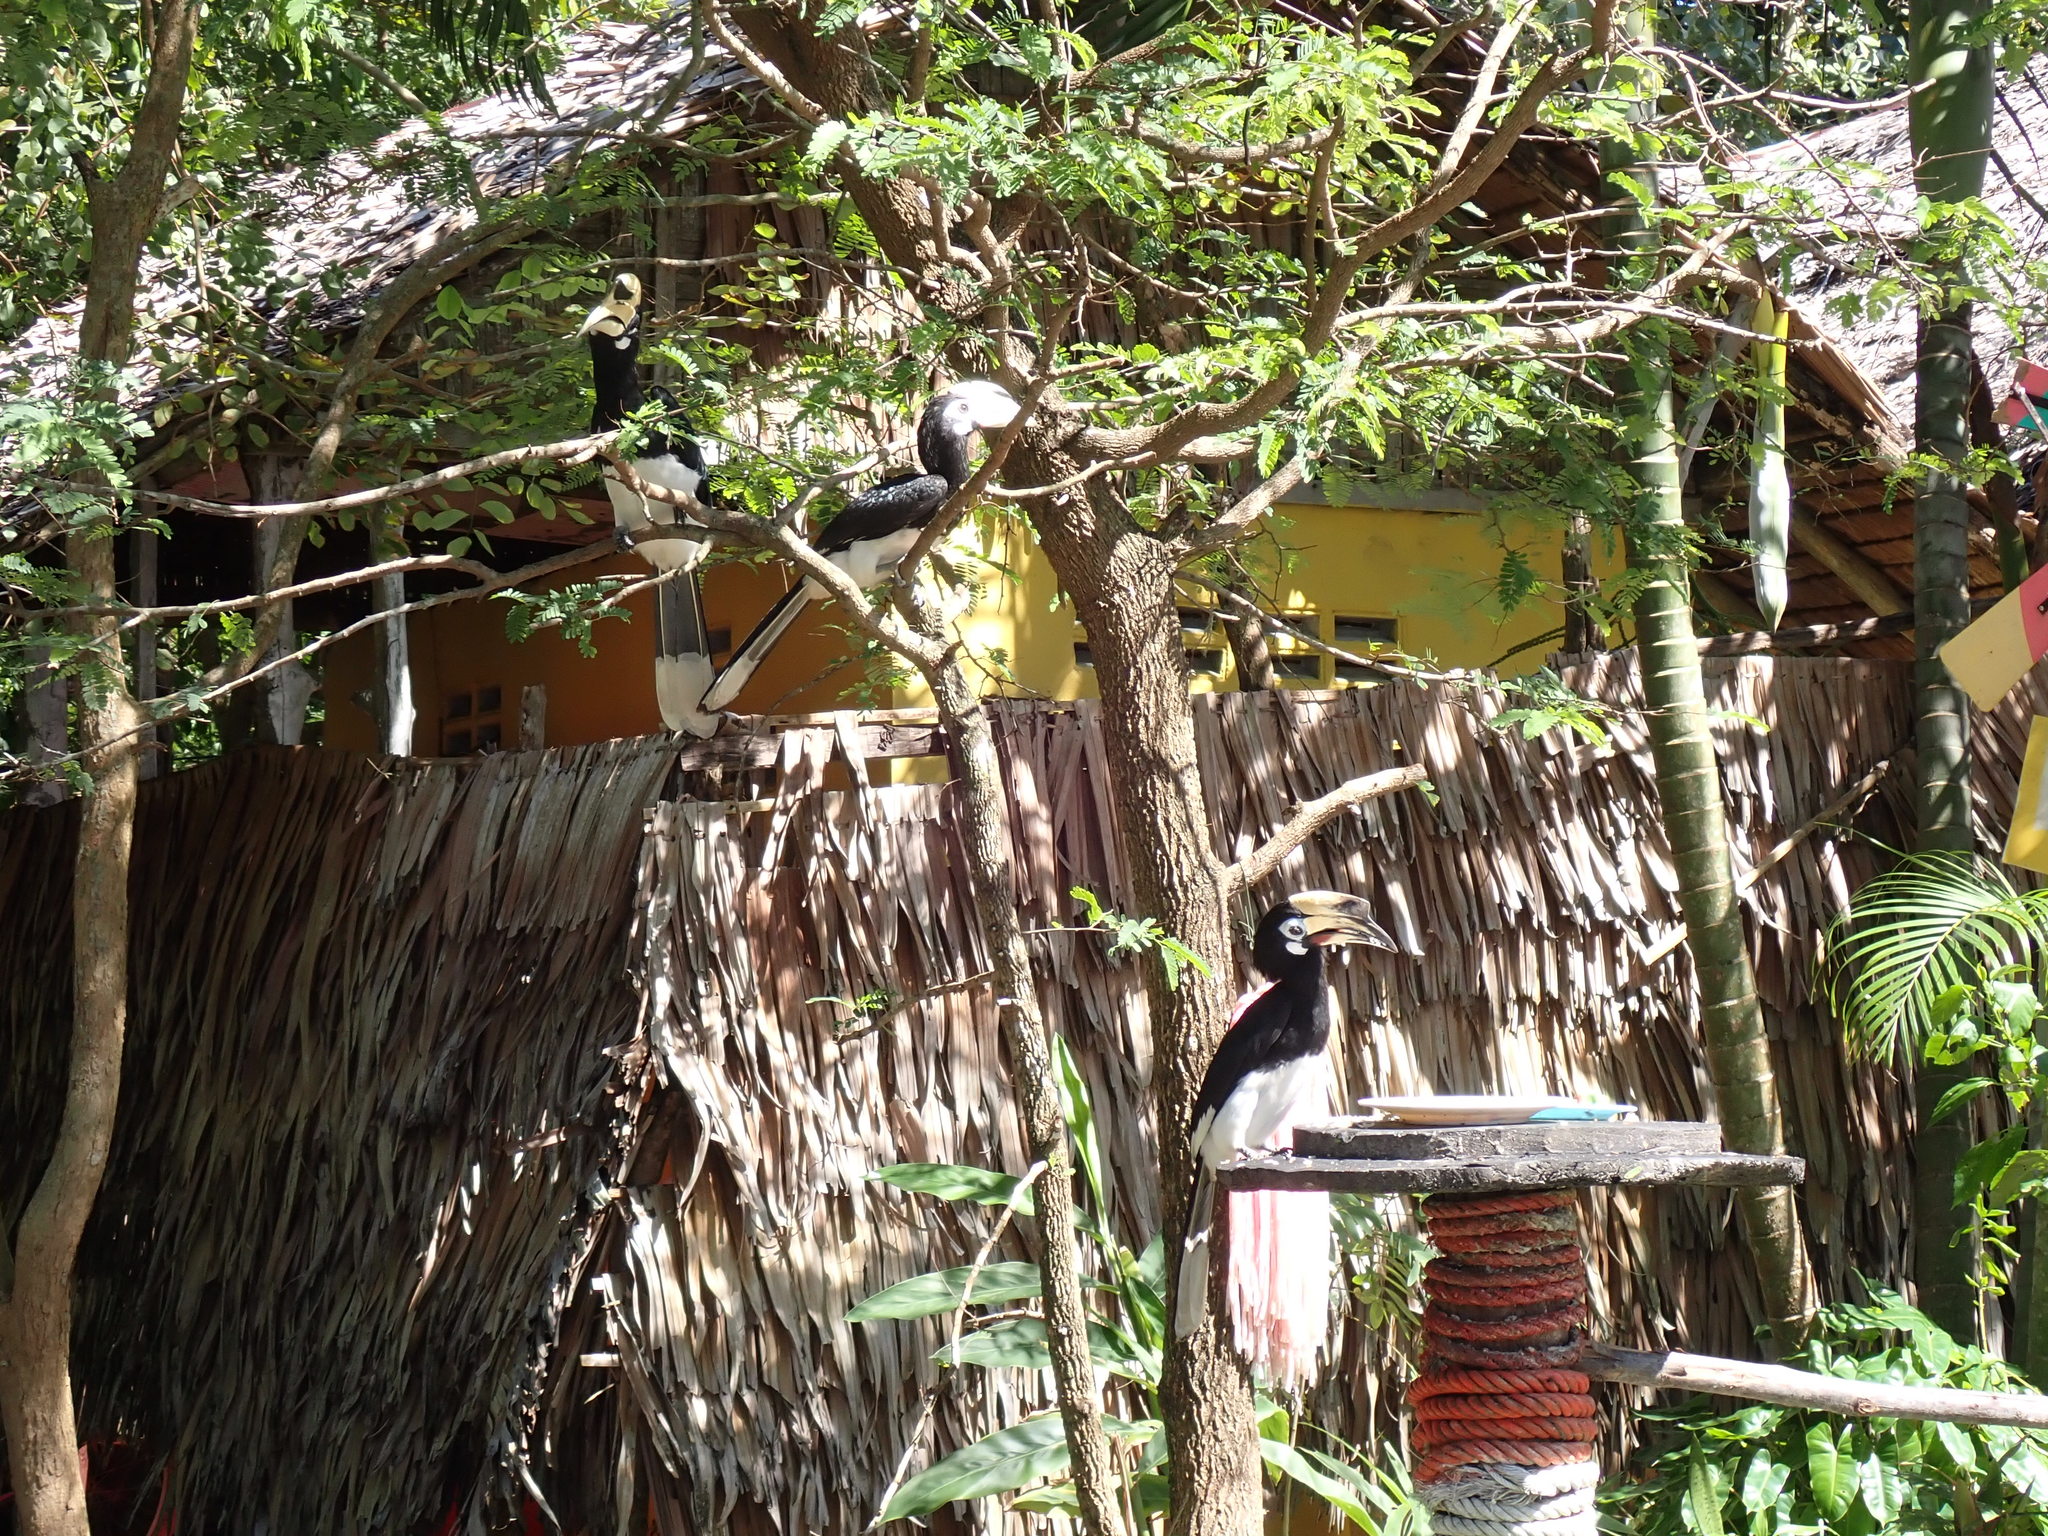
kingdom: Animalia
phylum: Chordata
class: Aves
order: Bucerotiformes
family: Bucerotidae
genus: Anthracoceros
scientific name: Anthracoceros albirostris
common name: Oriental pied-hornbill
